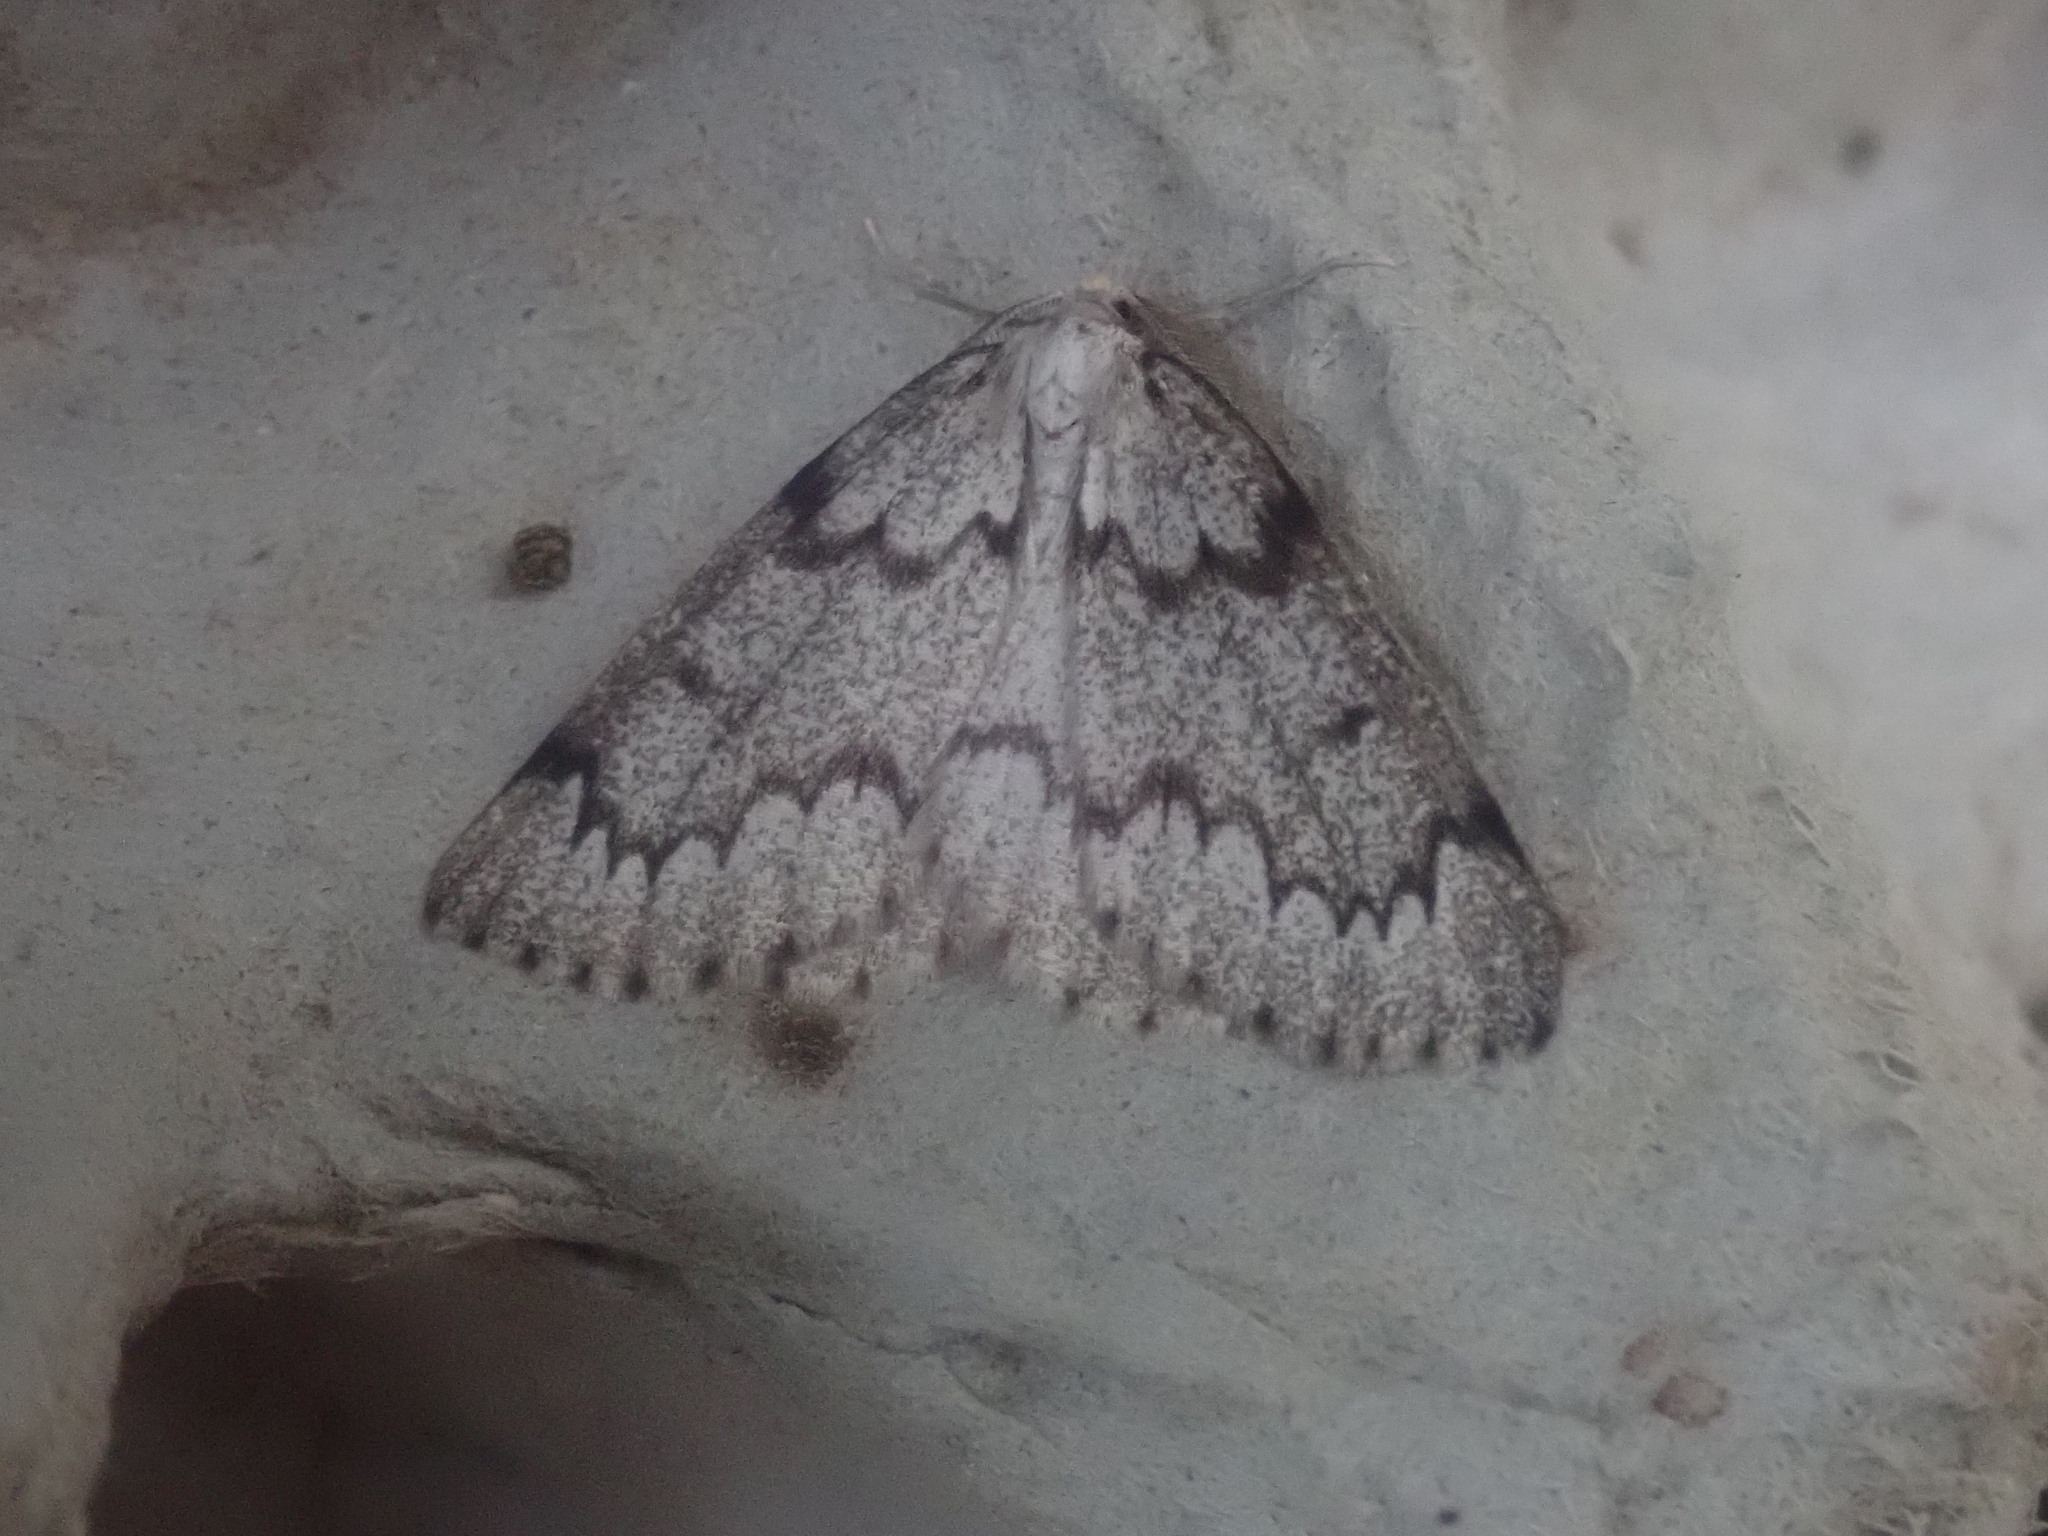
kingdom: Animalia
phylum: Arthropoda
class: Insecta
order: Lepidoptera
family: Geometridae
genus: Nepytia
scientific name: Nepytia canosaria
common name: False hemlock looper
